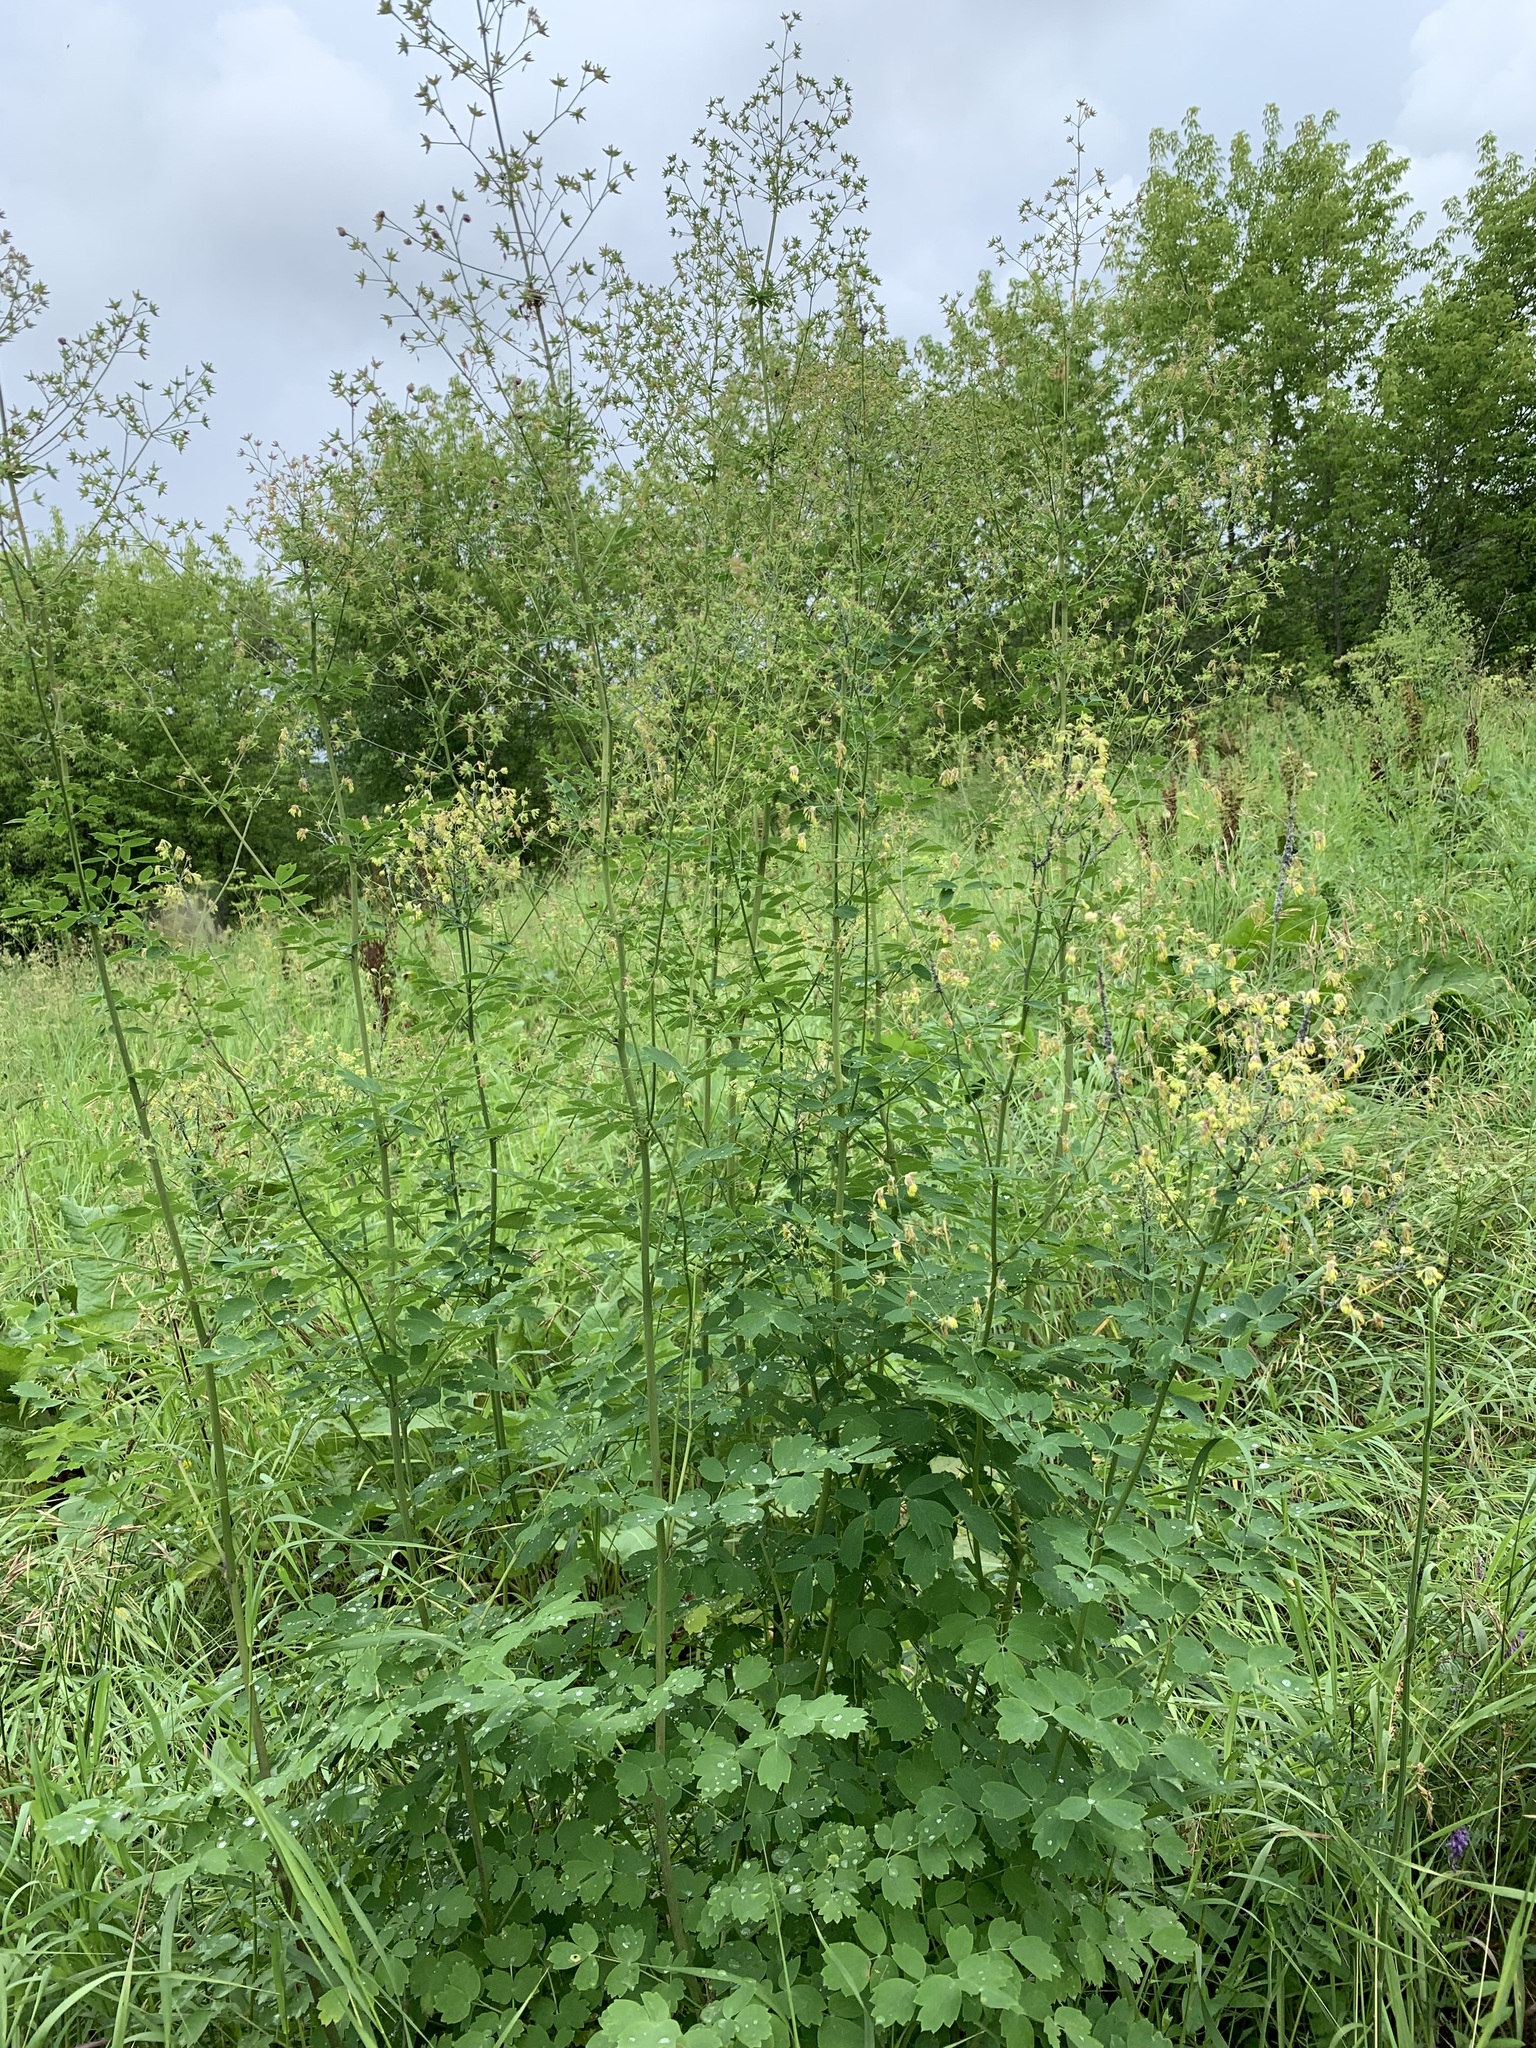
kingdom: Plantae
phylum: Tracheophyta
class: Magnoliopsida
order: Ranunculales
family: Ranunculaceae
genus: Thalictrum
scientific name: Thalictrum minus
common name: Lesser meadow-rue
